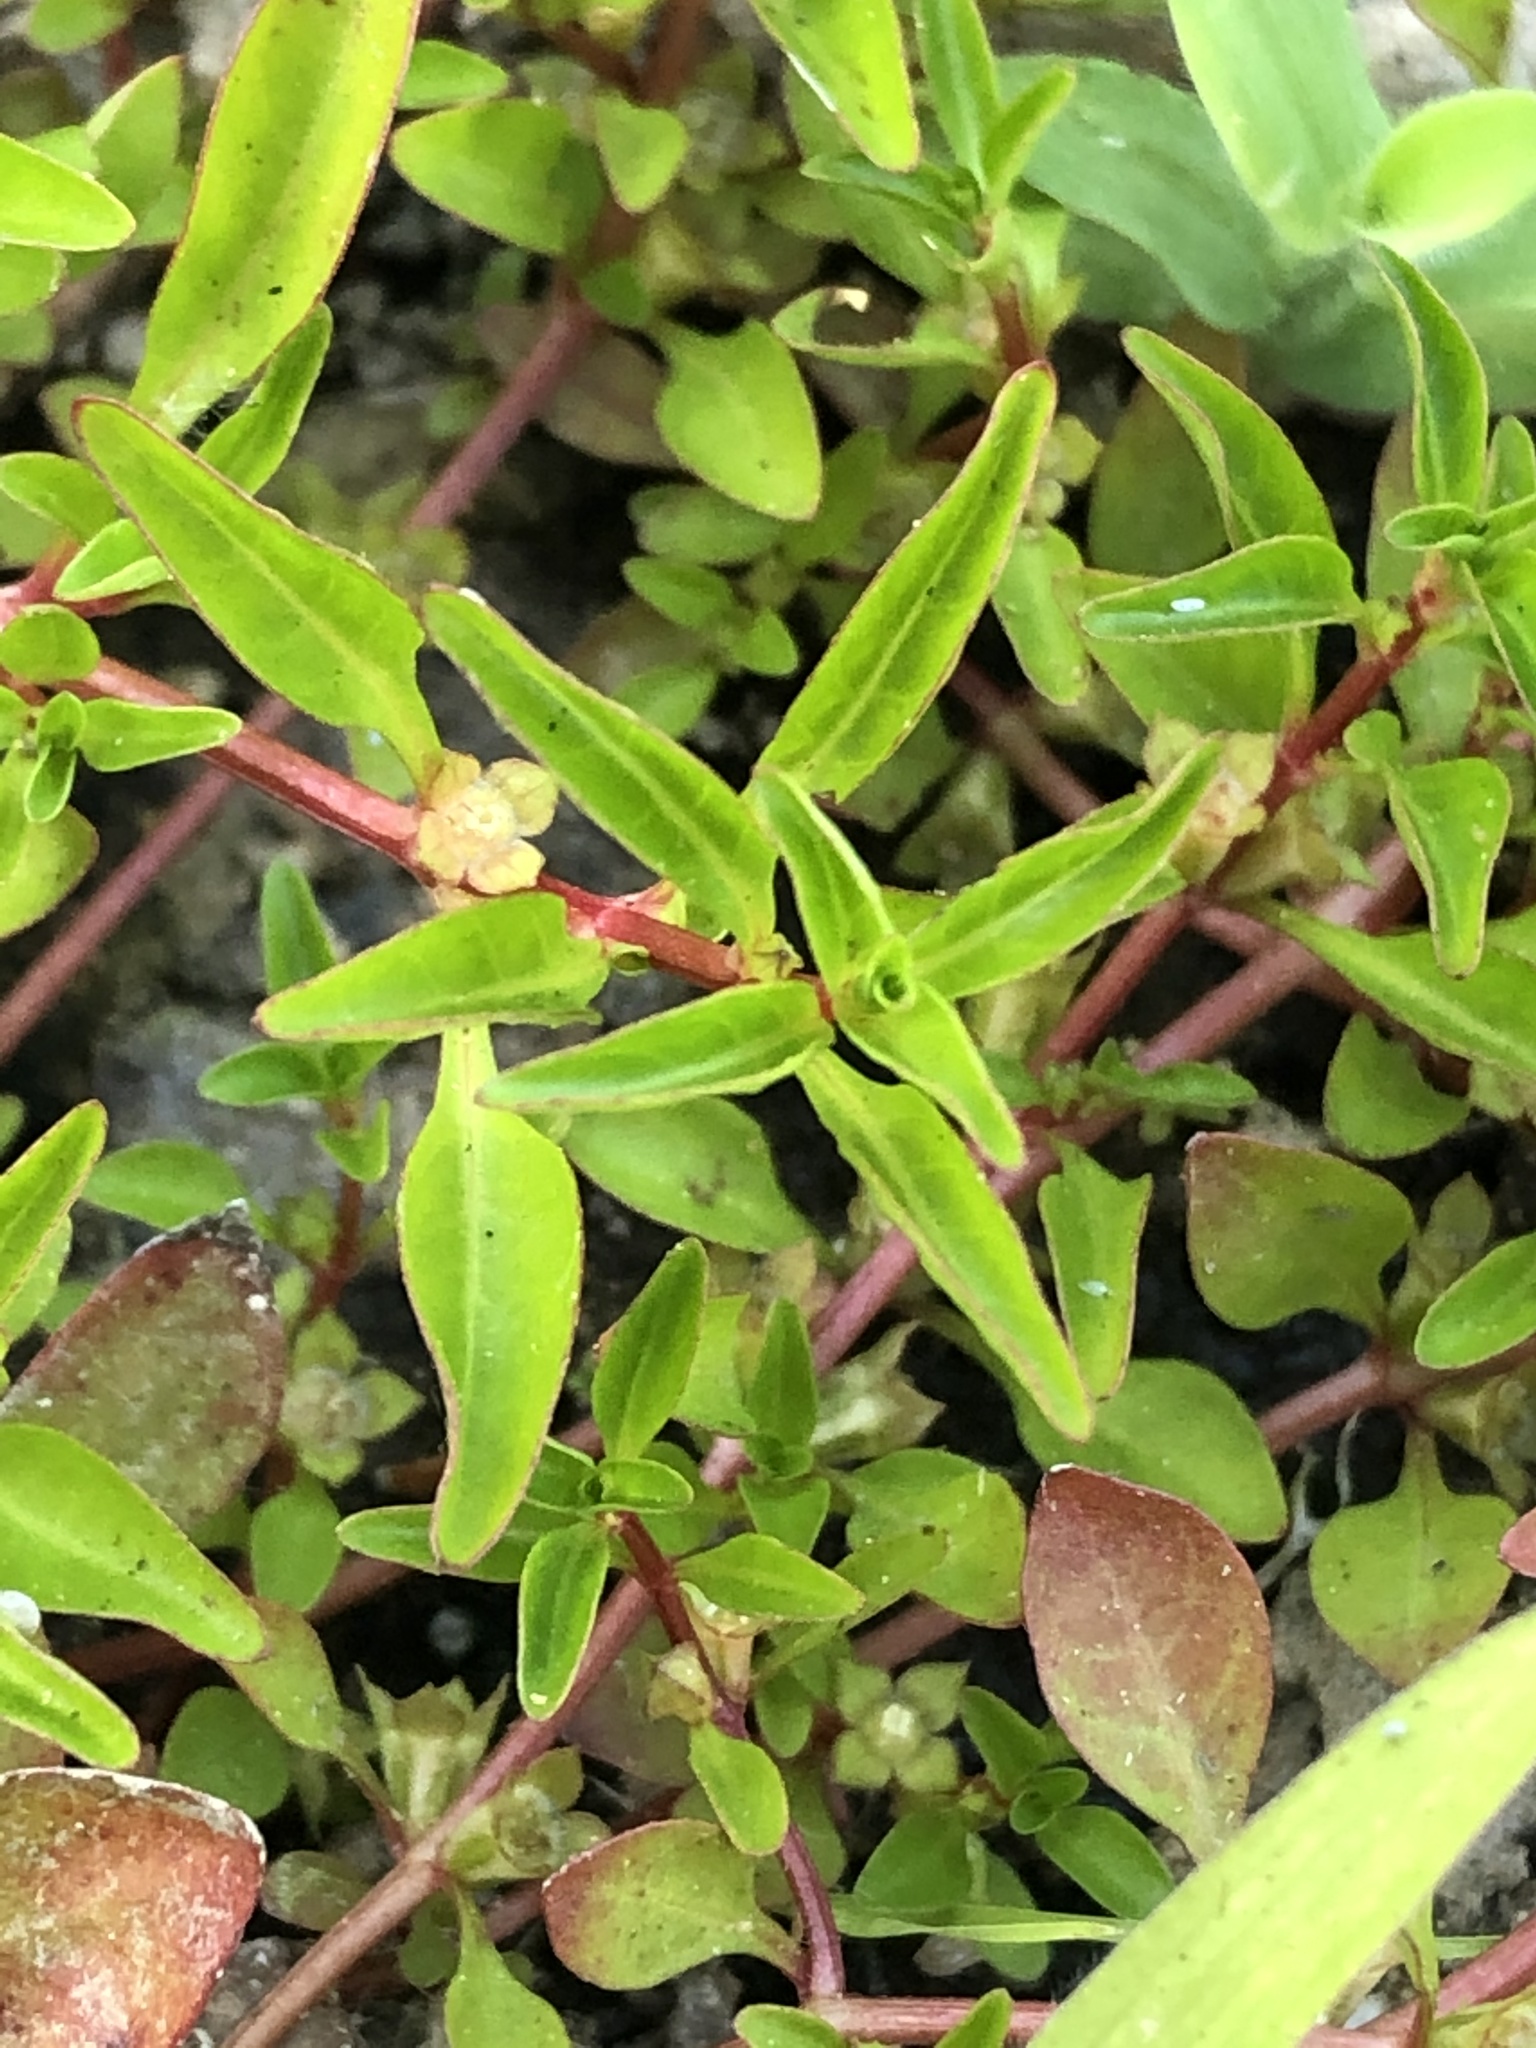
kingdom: Plantae
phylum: Tracheophyta
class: Magnoliopsida
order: Myrtales
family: Onagraceae
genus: Ludwigia
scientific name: Ludwigia palustris
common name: Hampshire-purslane
